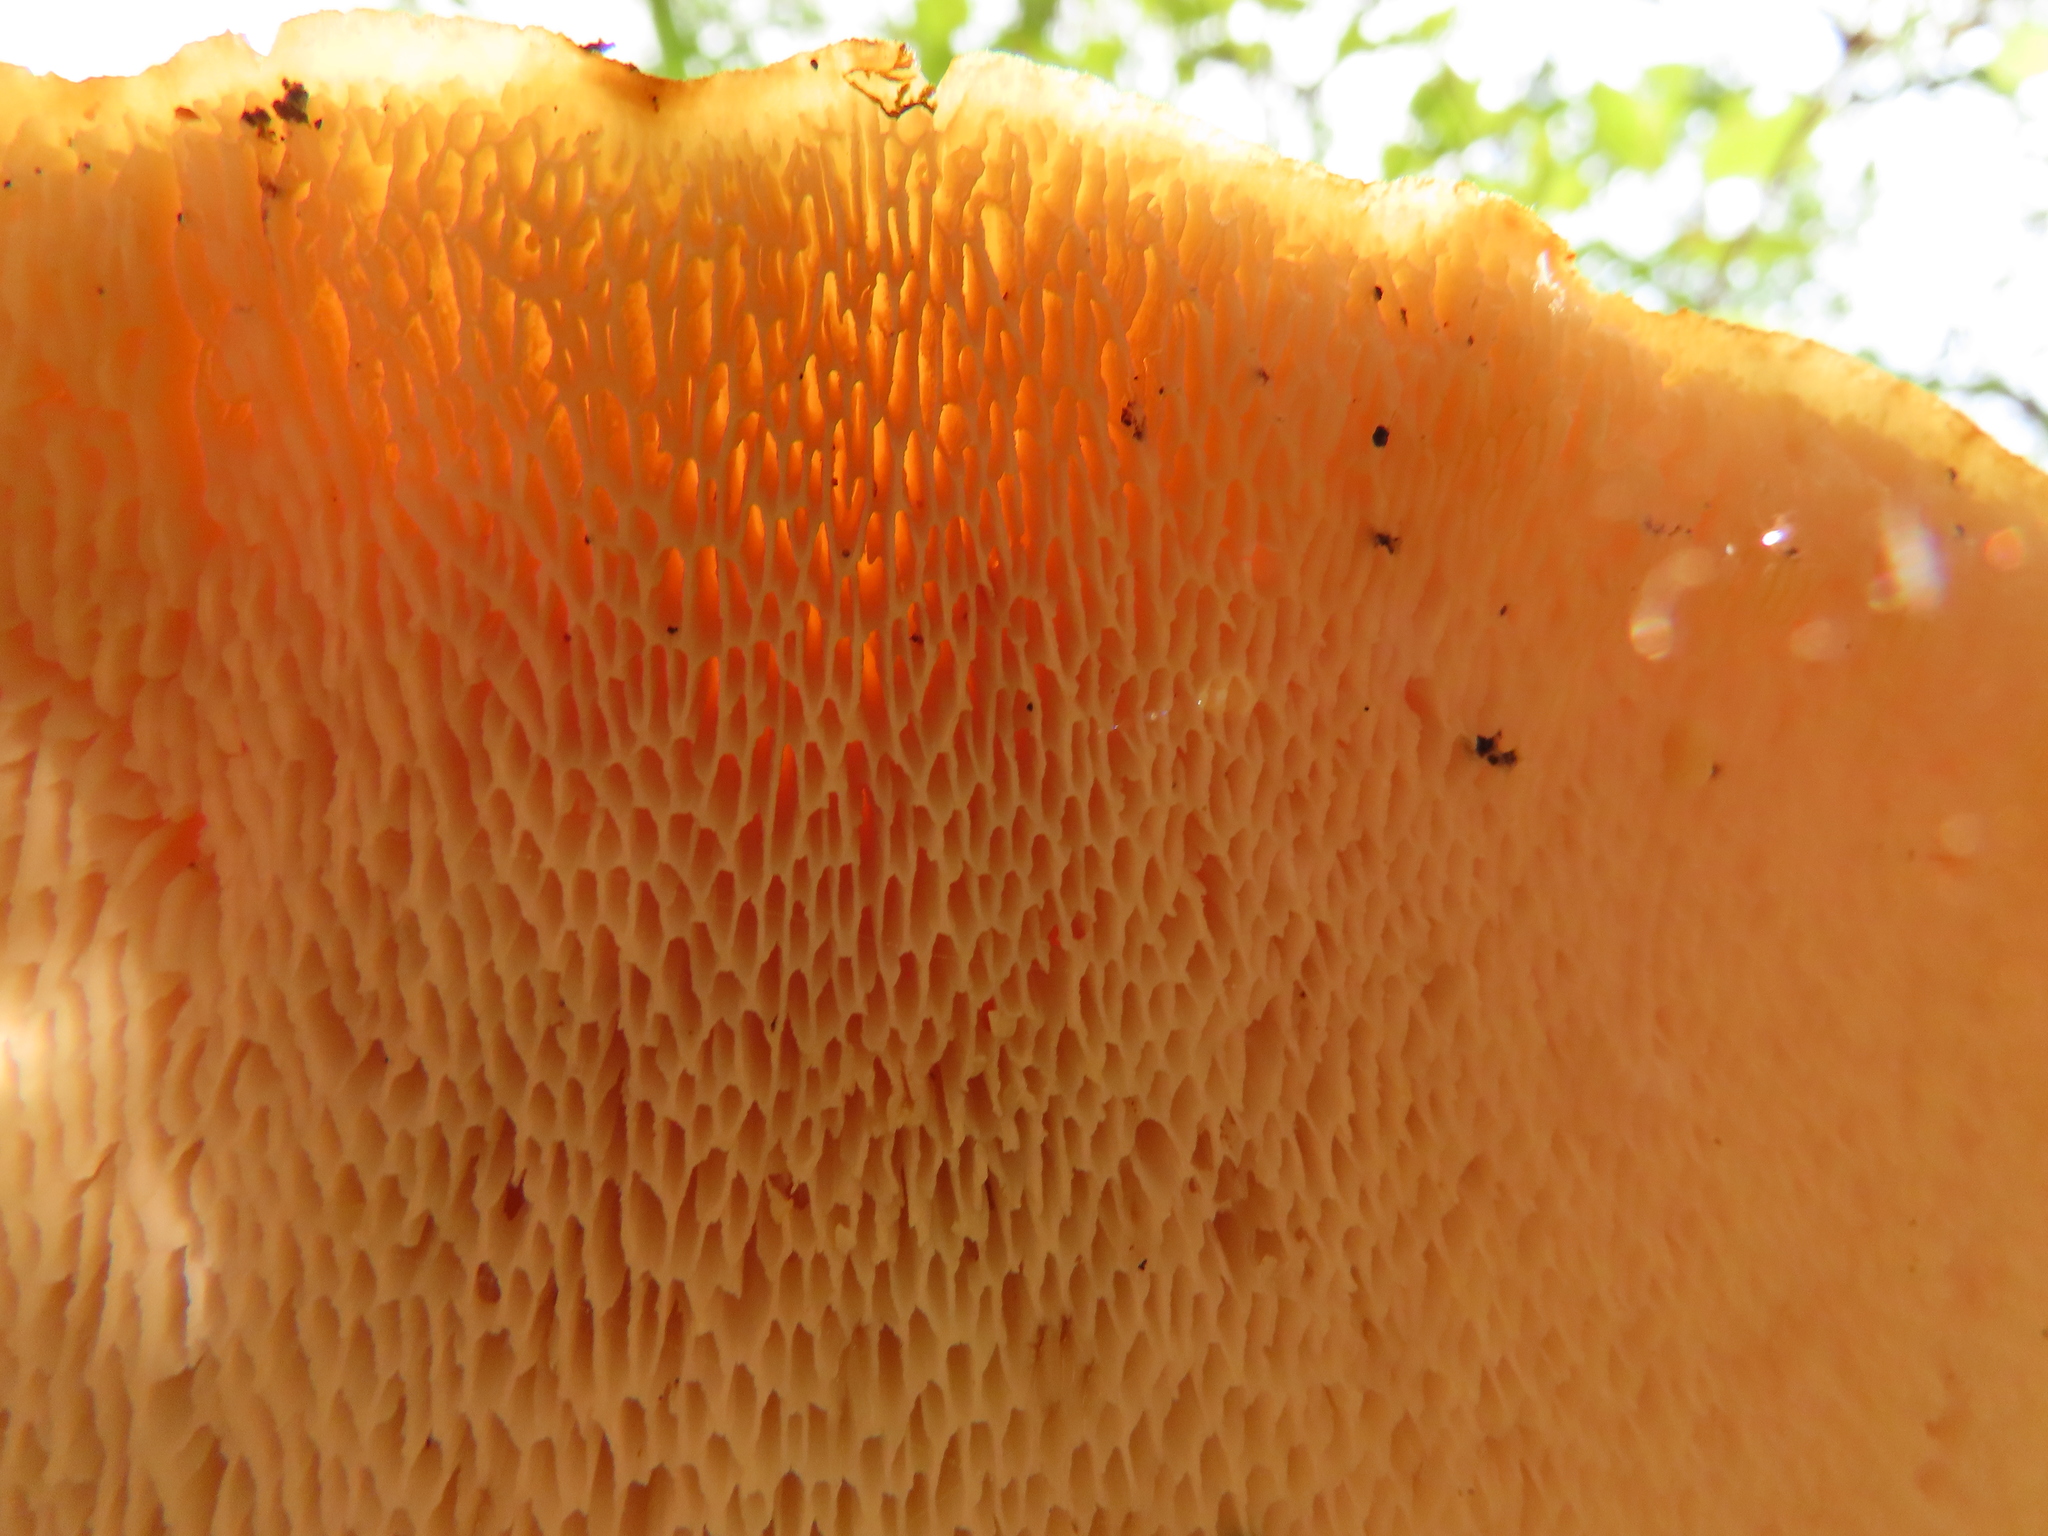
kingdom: Fungi
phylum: Basidiomycota
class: Agaricomycetes
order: Polyporales
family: Polyporaceae
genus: Cerioporus
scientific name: Cerioporus squamosus
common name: Dryad's saddle
